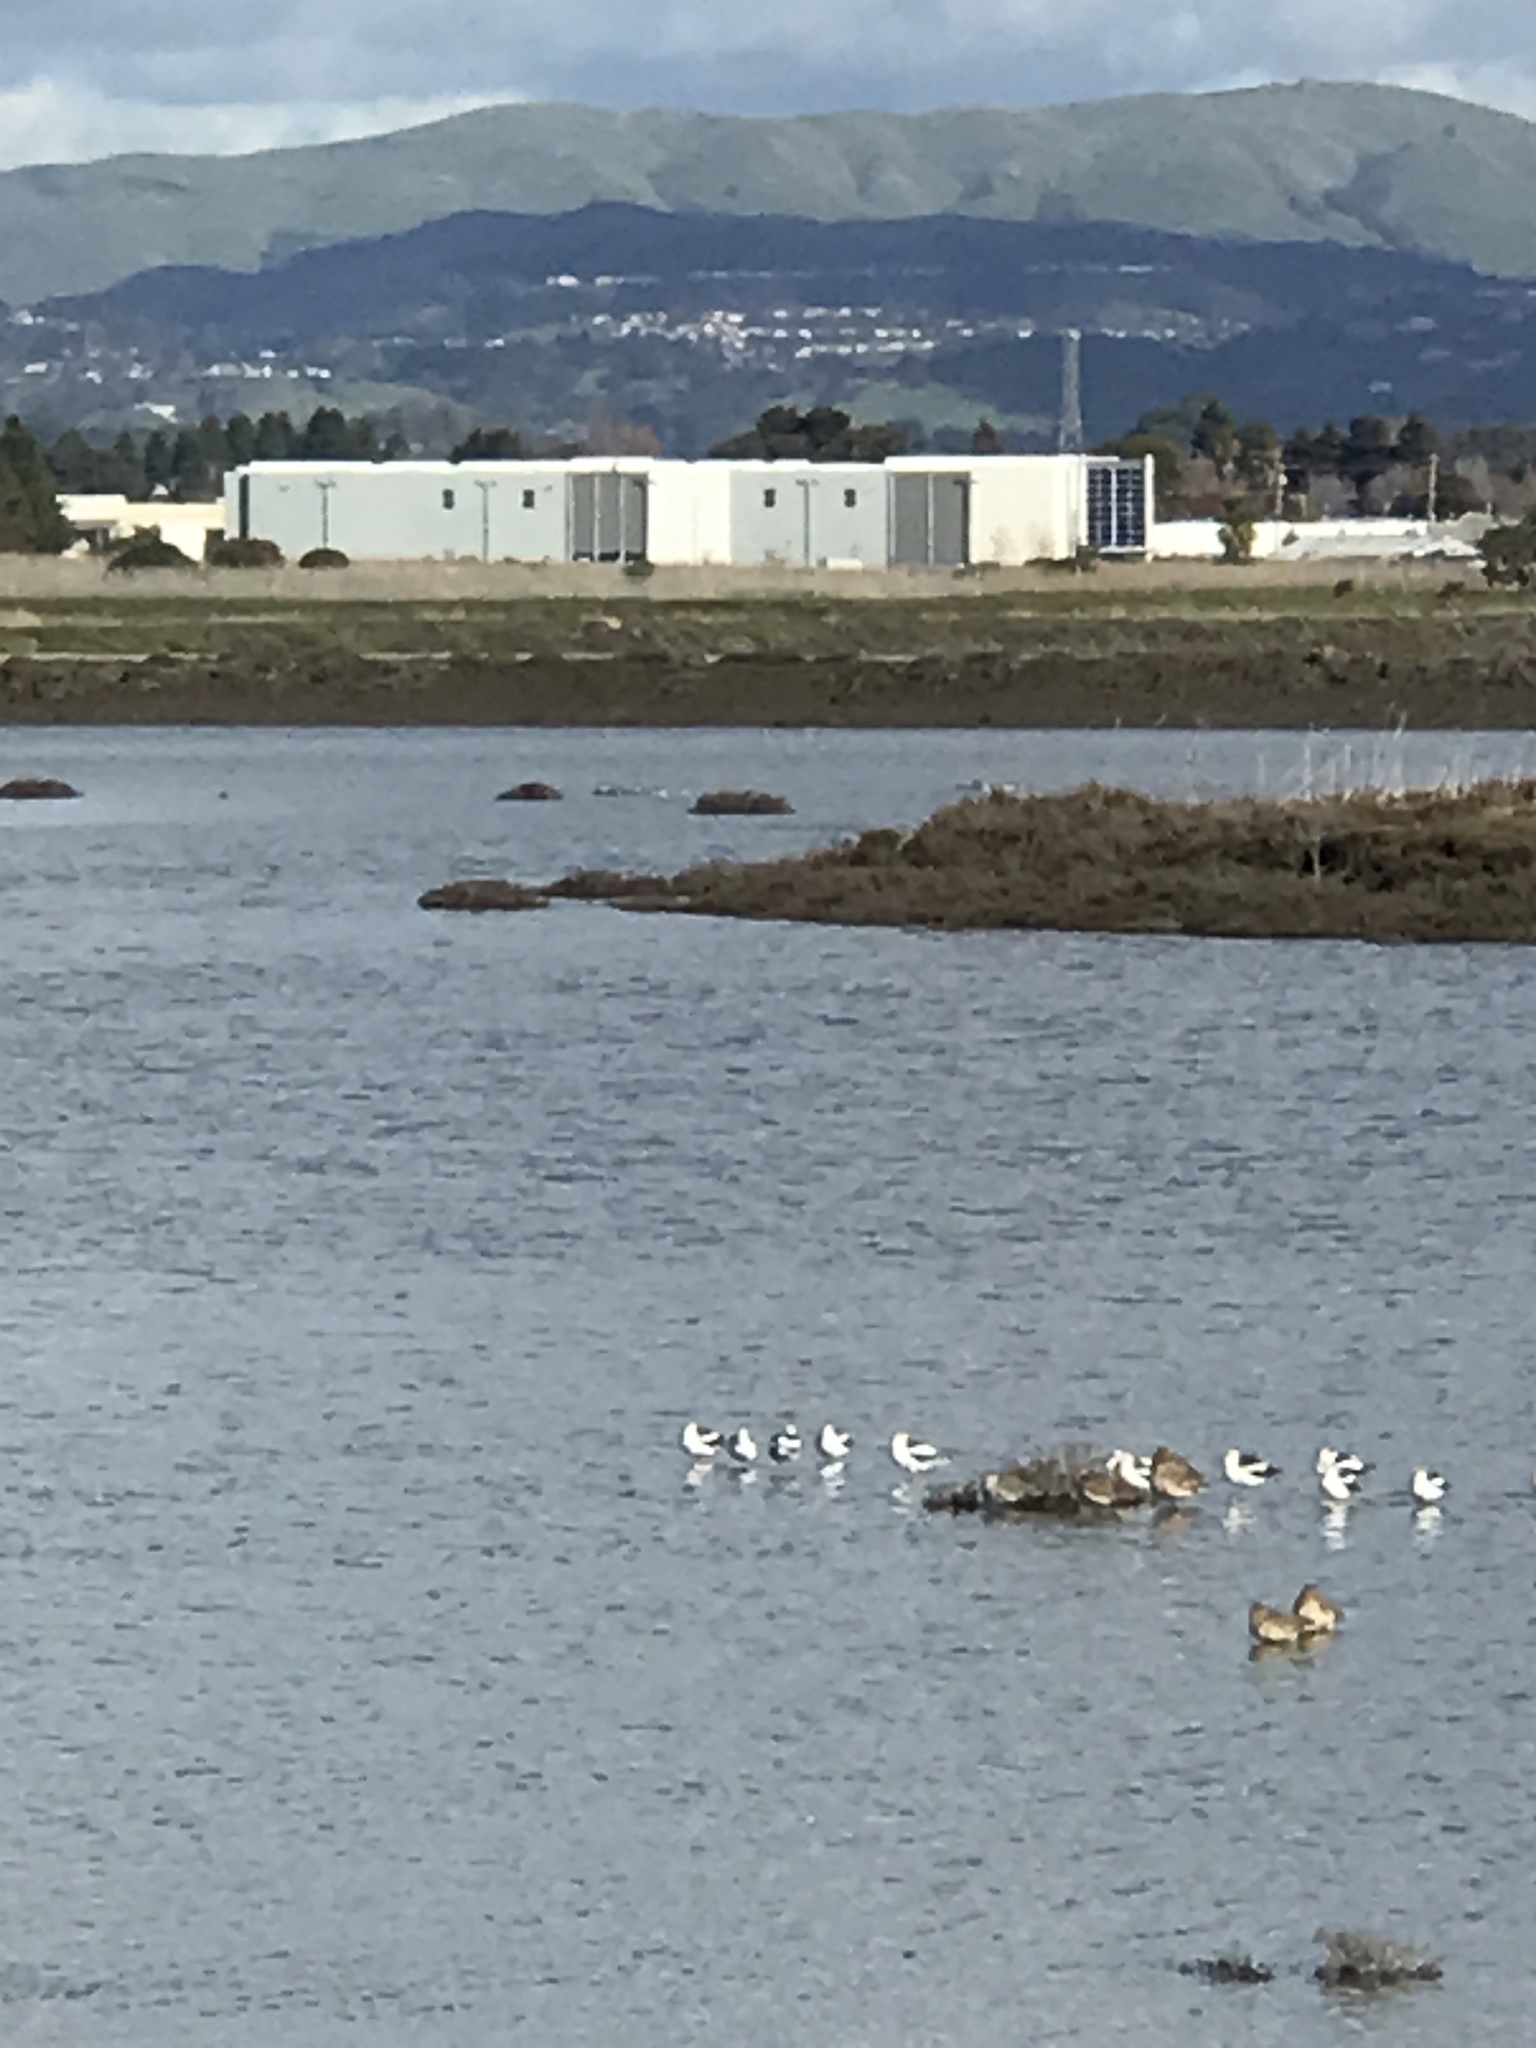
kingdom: Animalia
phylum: Chordata
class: Aves
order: Charadriiformes
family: Recurvirostridae
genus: Recurvirostra
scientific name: Recurvirostra americana
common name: American avocet
